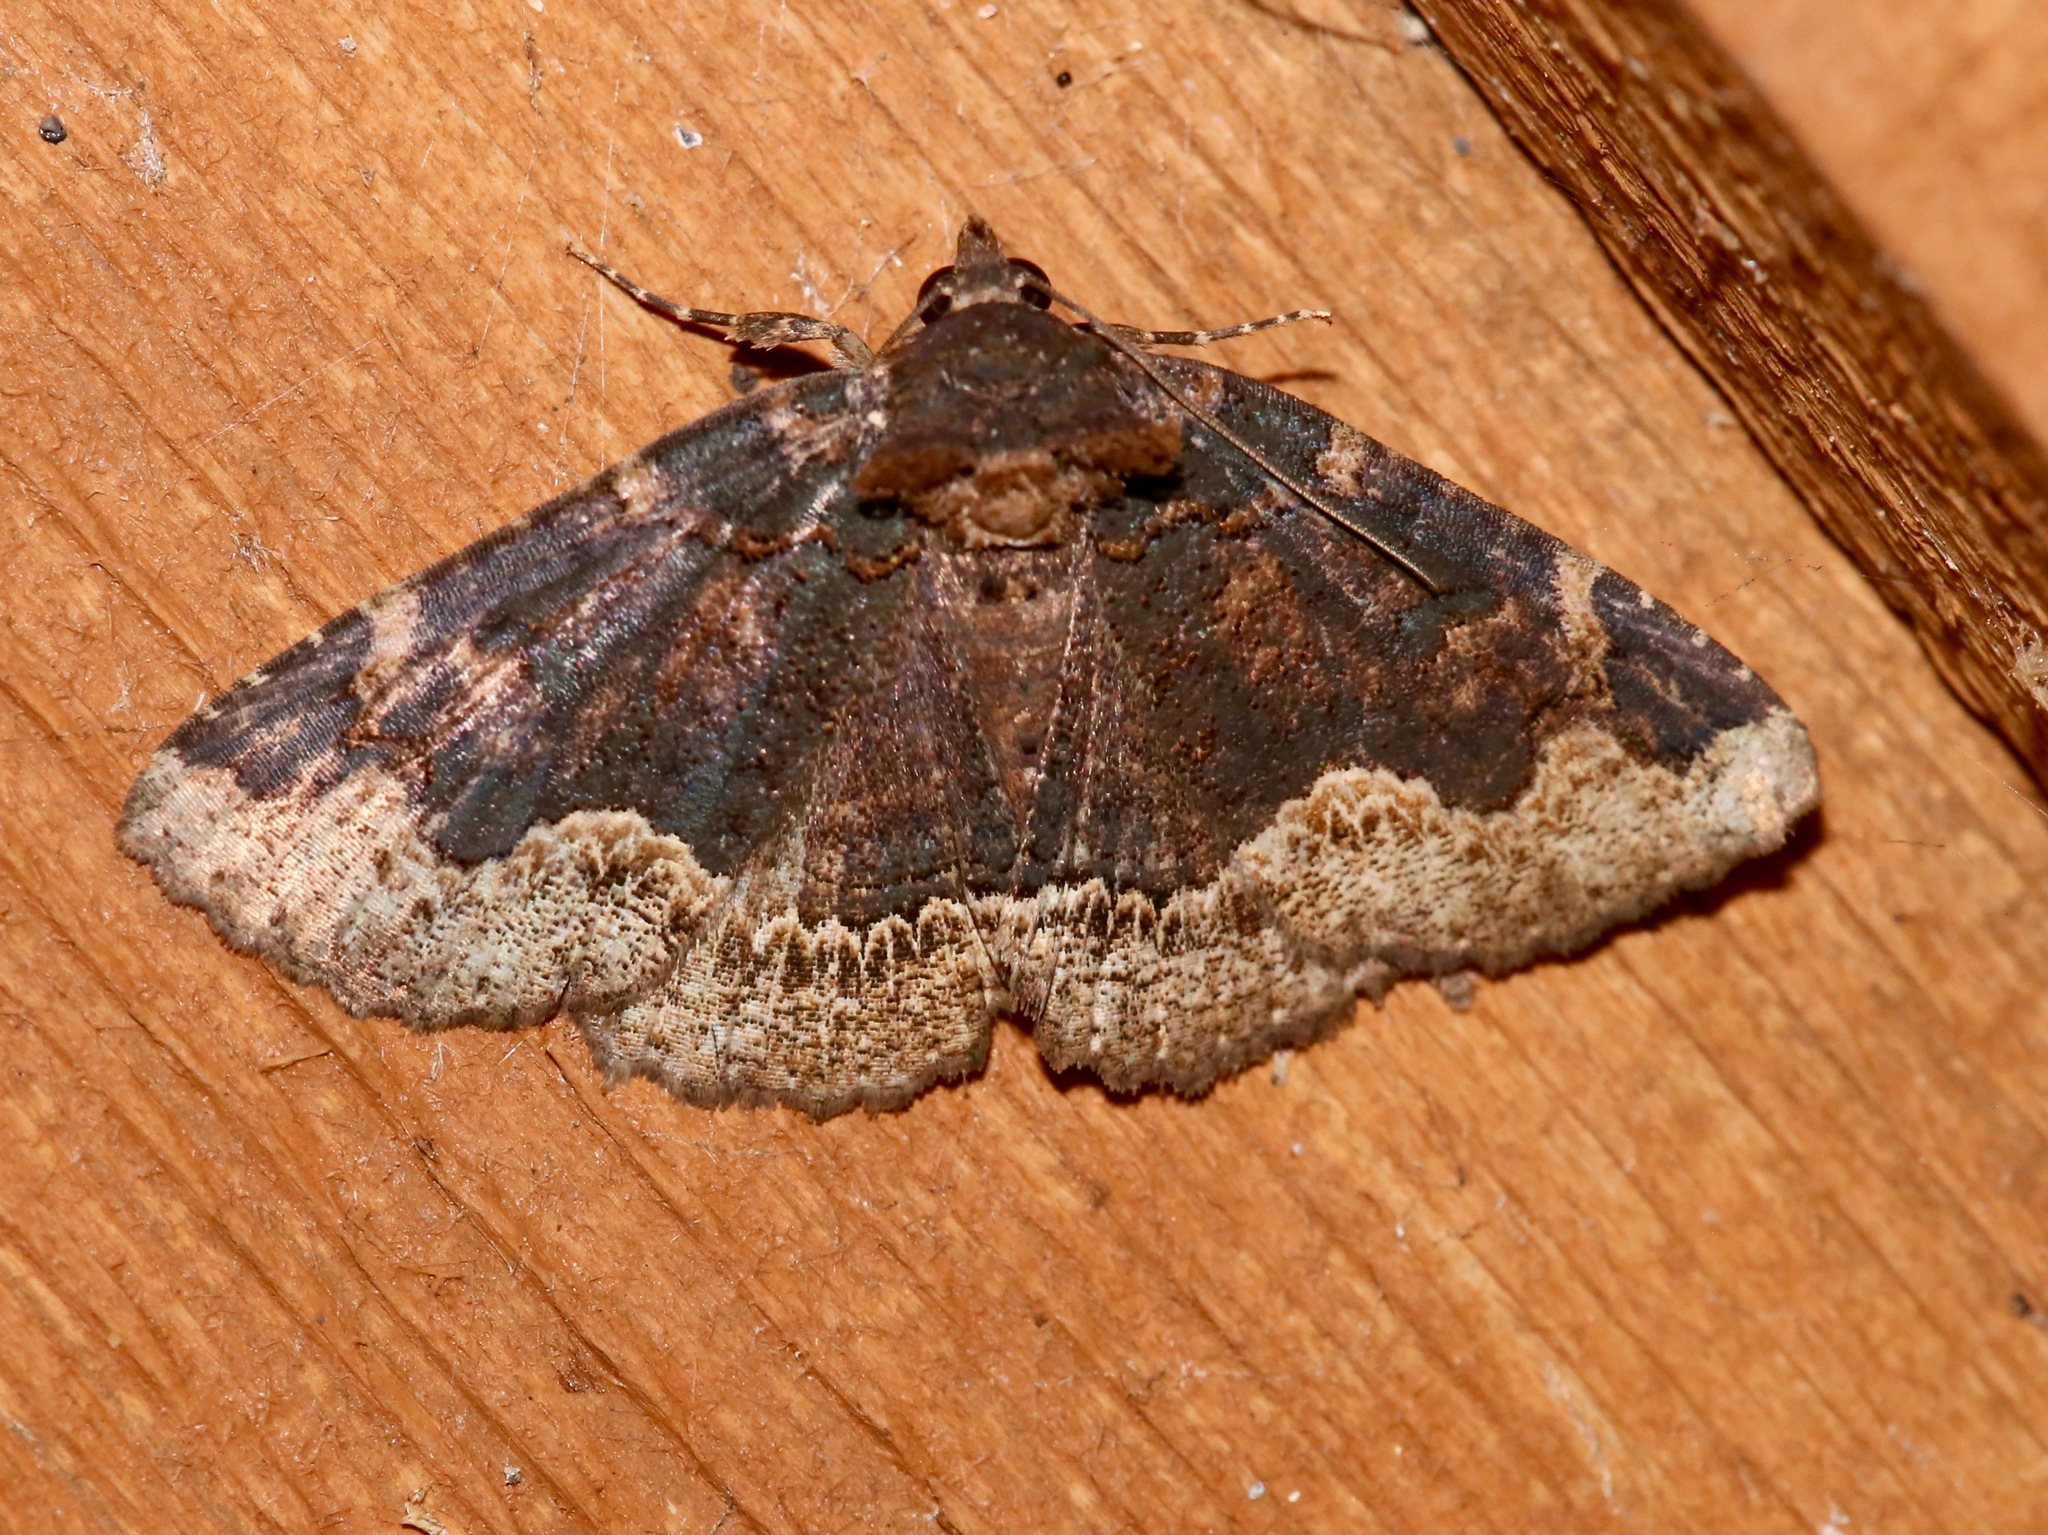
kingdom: Animalia
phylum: Arthropoda
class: Insecta
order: Lepidoptera
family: Erebidae
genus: Zale
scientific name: Zale horrida
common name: Horrid zale moth
